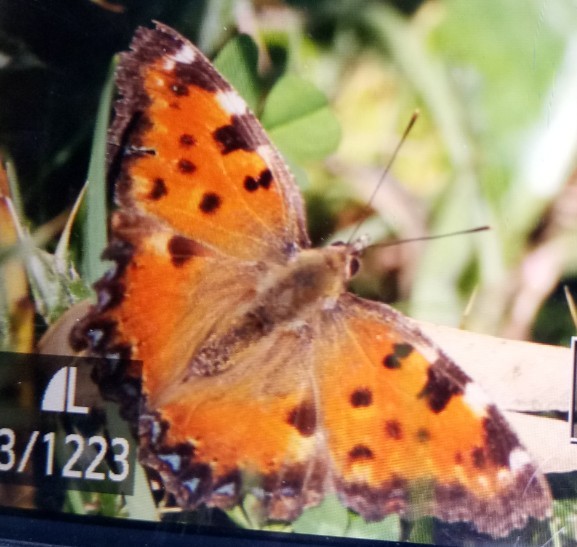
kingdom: Animalia
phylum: Arthropoda
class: Insecta
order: Lepidoptera
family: Nymphalidae
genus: Nymphalis
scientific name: Nymphalis polychloros
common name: Large tortoiseshell
